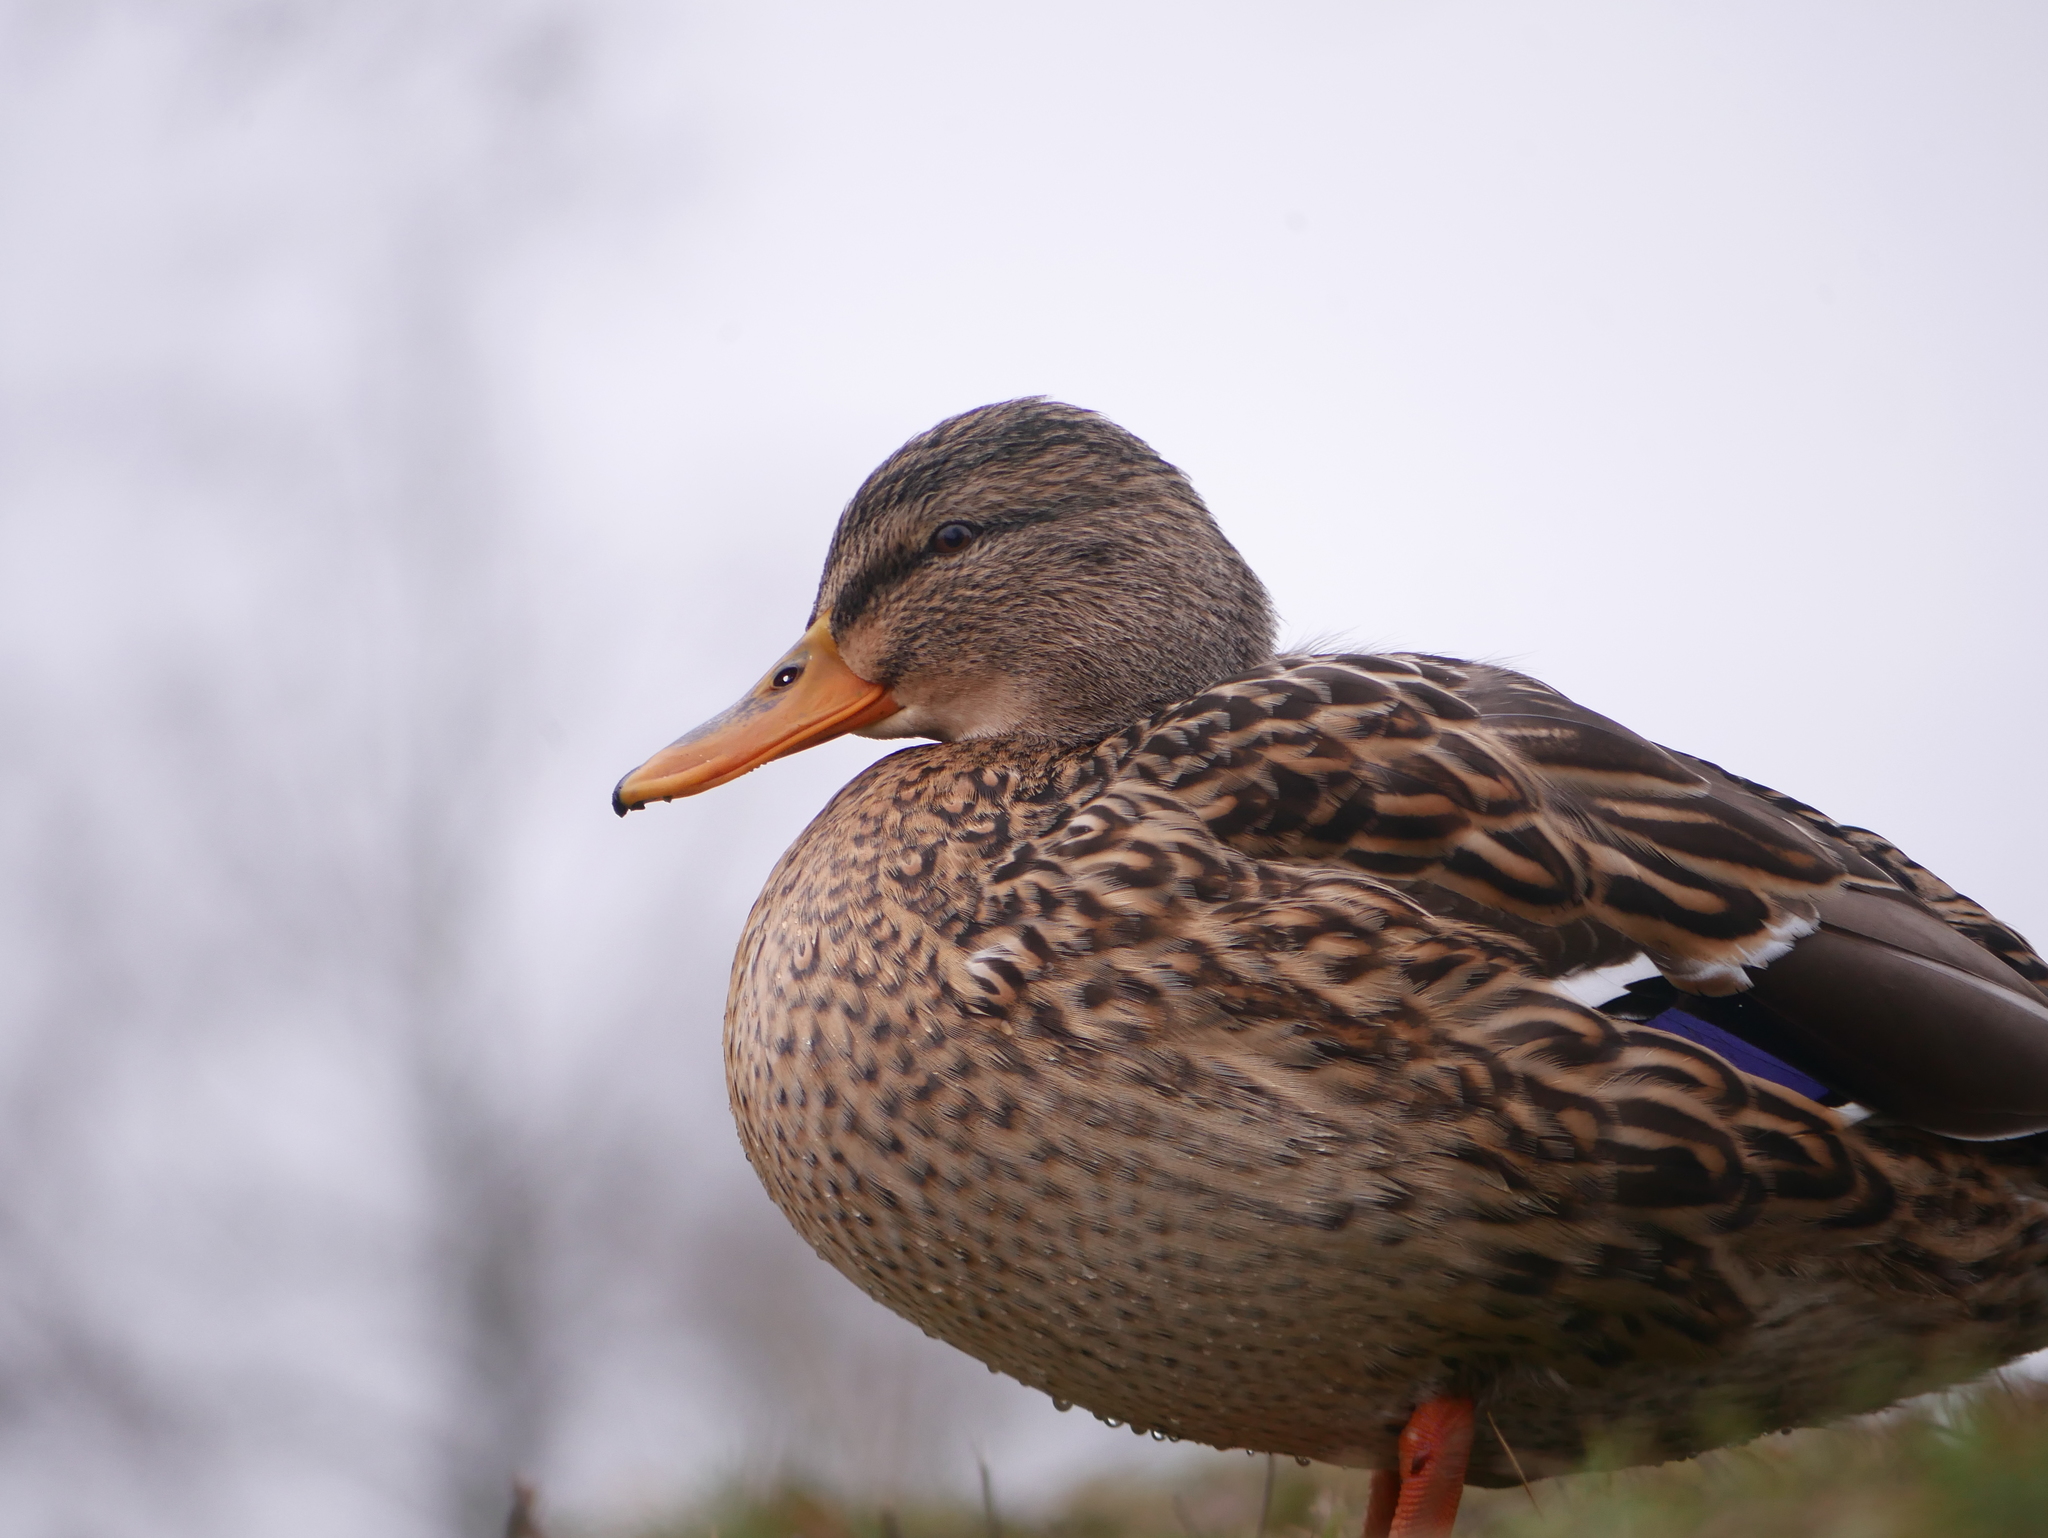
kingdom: Animalia
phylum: Chordata
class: Aves
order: Anseriformes
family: Anatidae
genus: Anas
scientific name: Anas platyrhynchos
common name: Mallard
